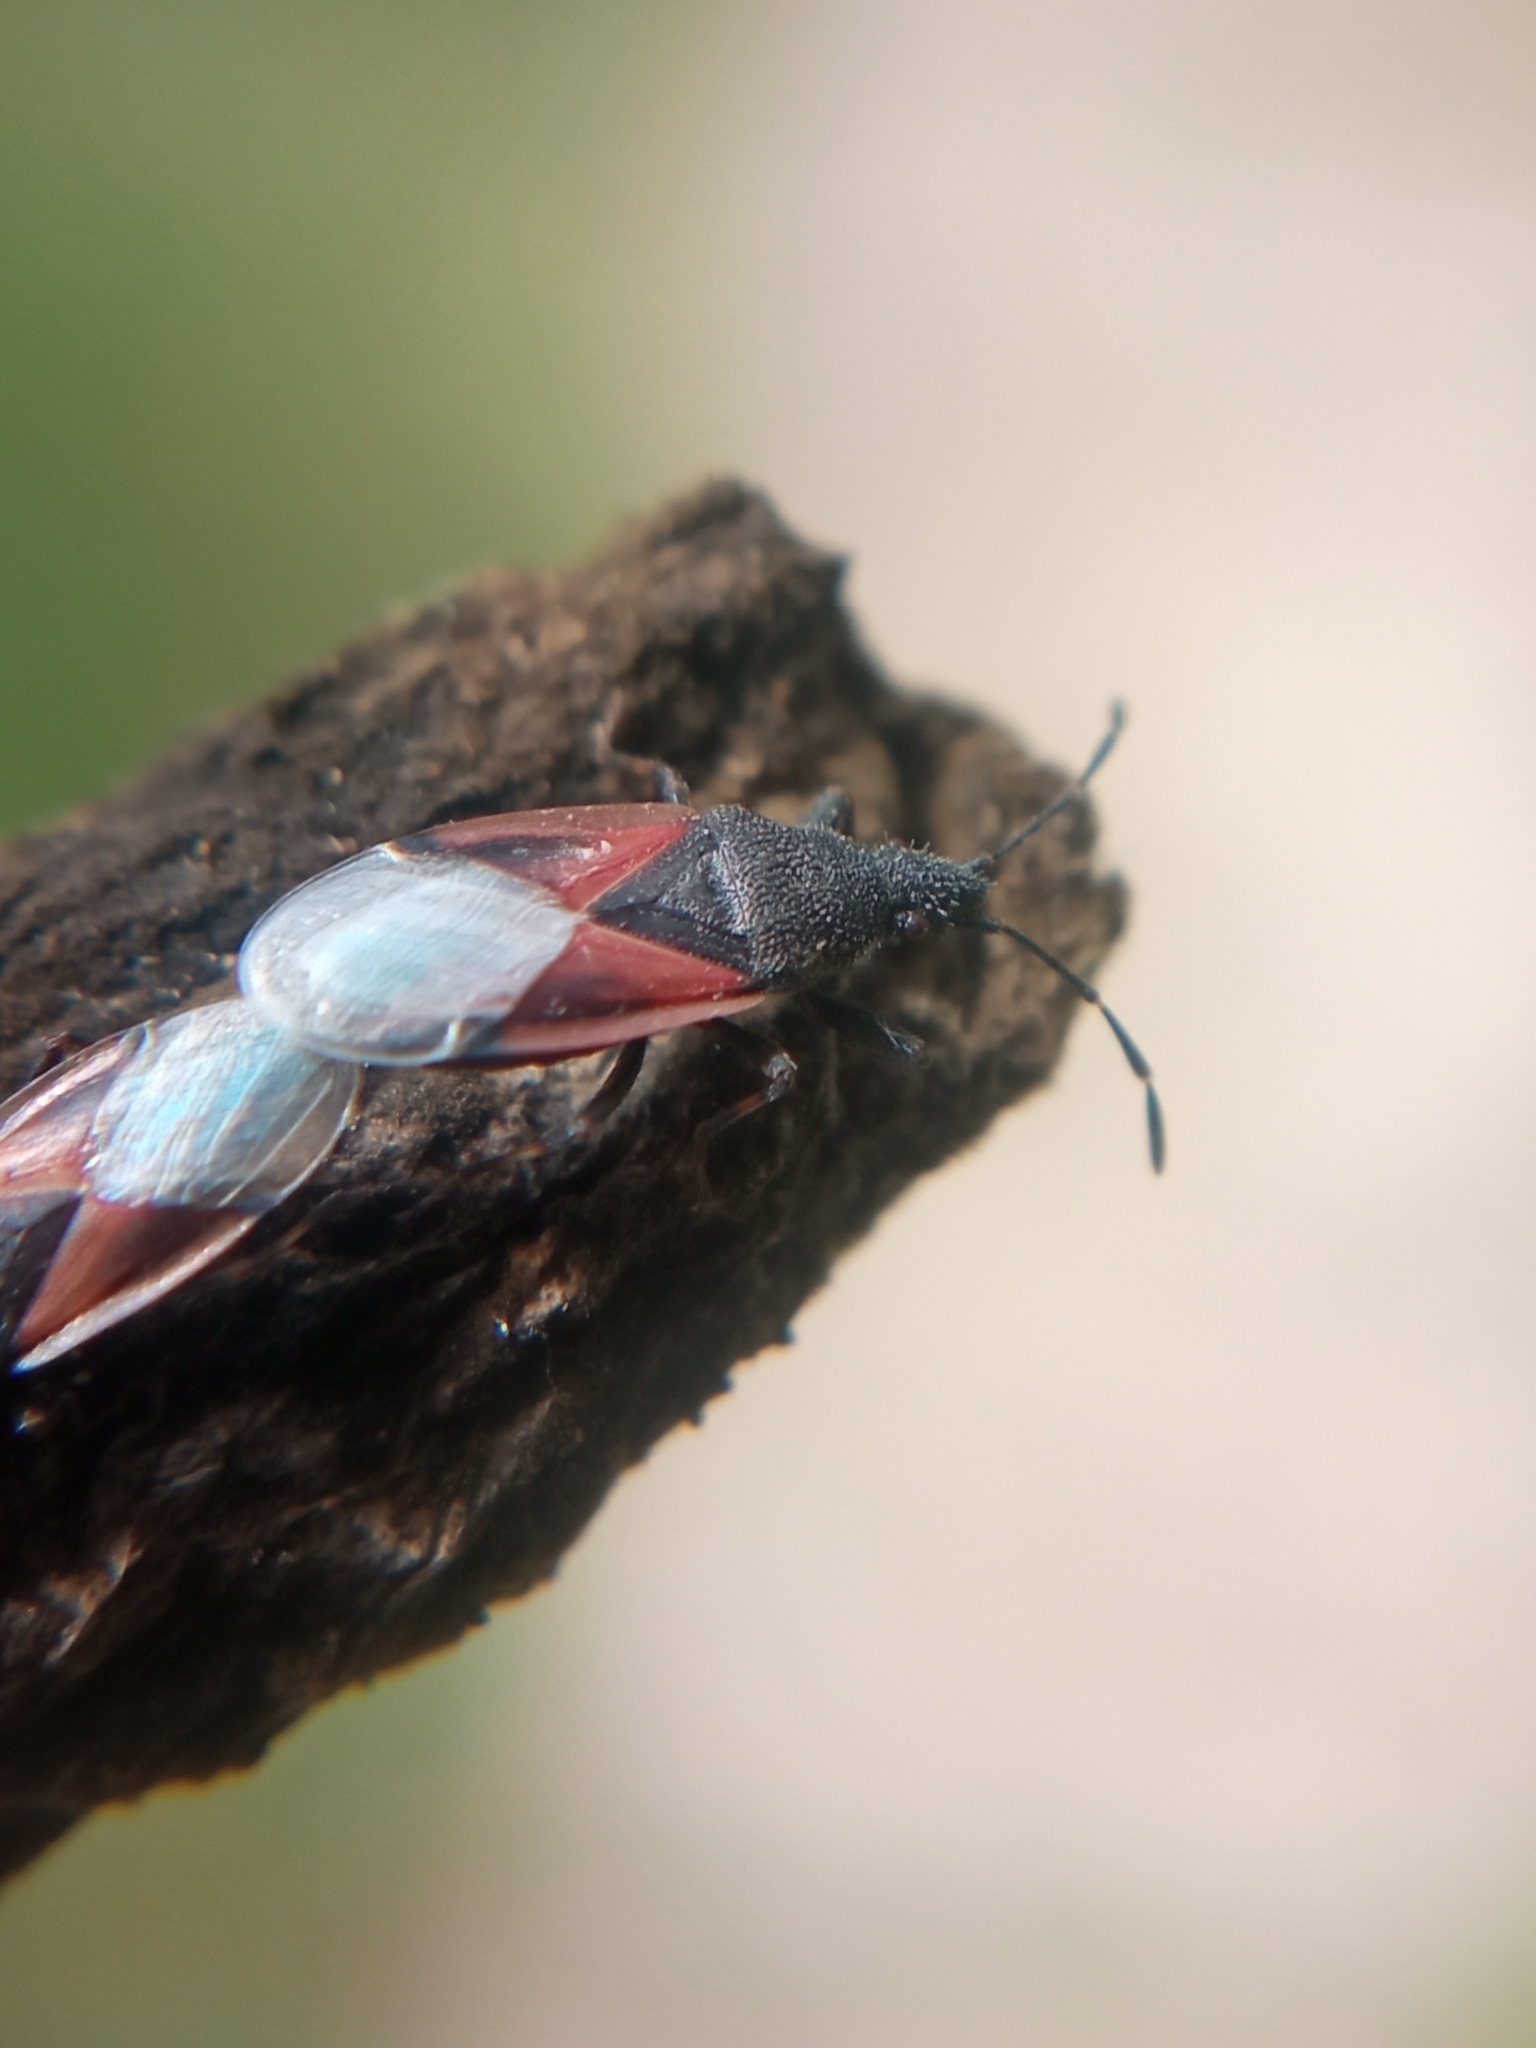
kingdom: Animalia
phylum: Arthropoda
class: Insecta
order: Hemiptera
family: Oxycarenidae
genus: Oxycarenus
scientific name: Oxycarenus lavaterae
